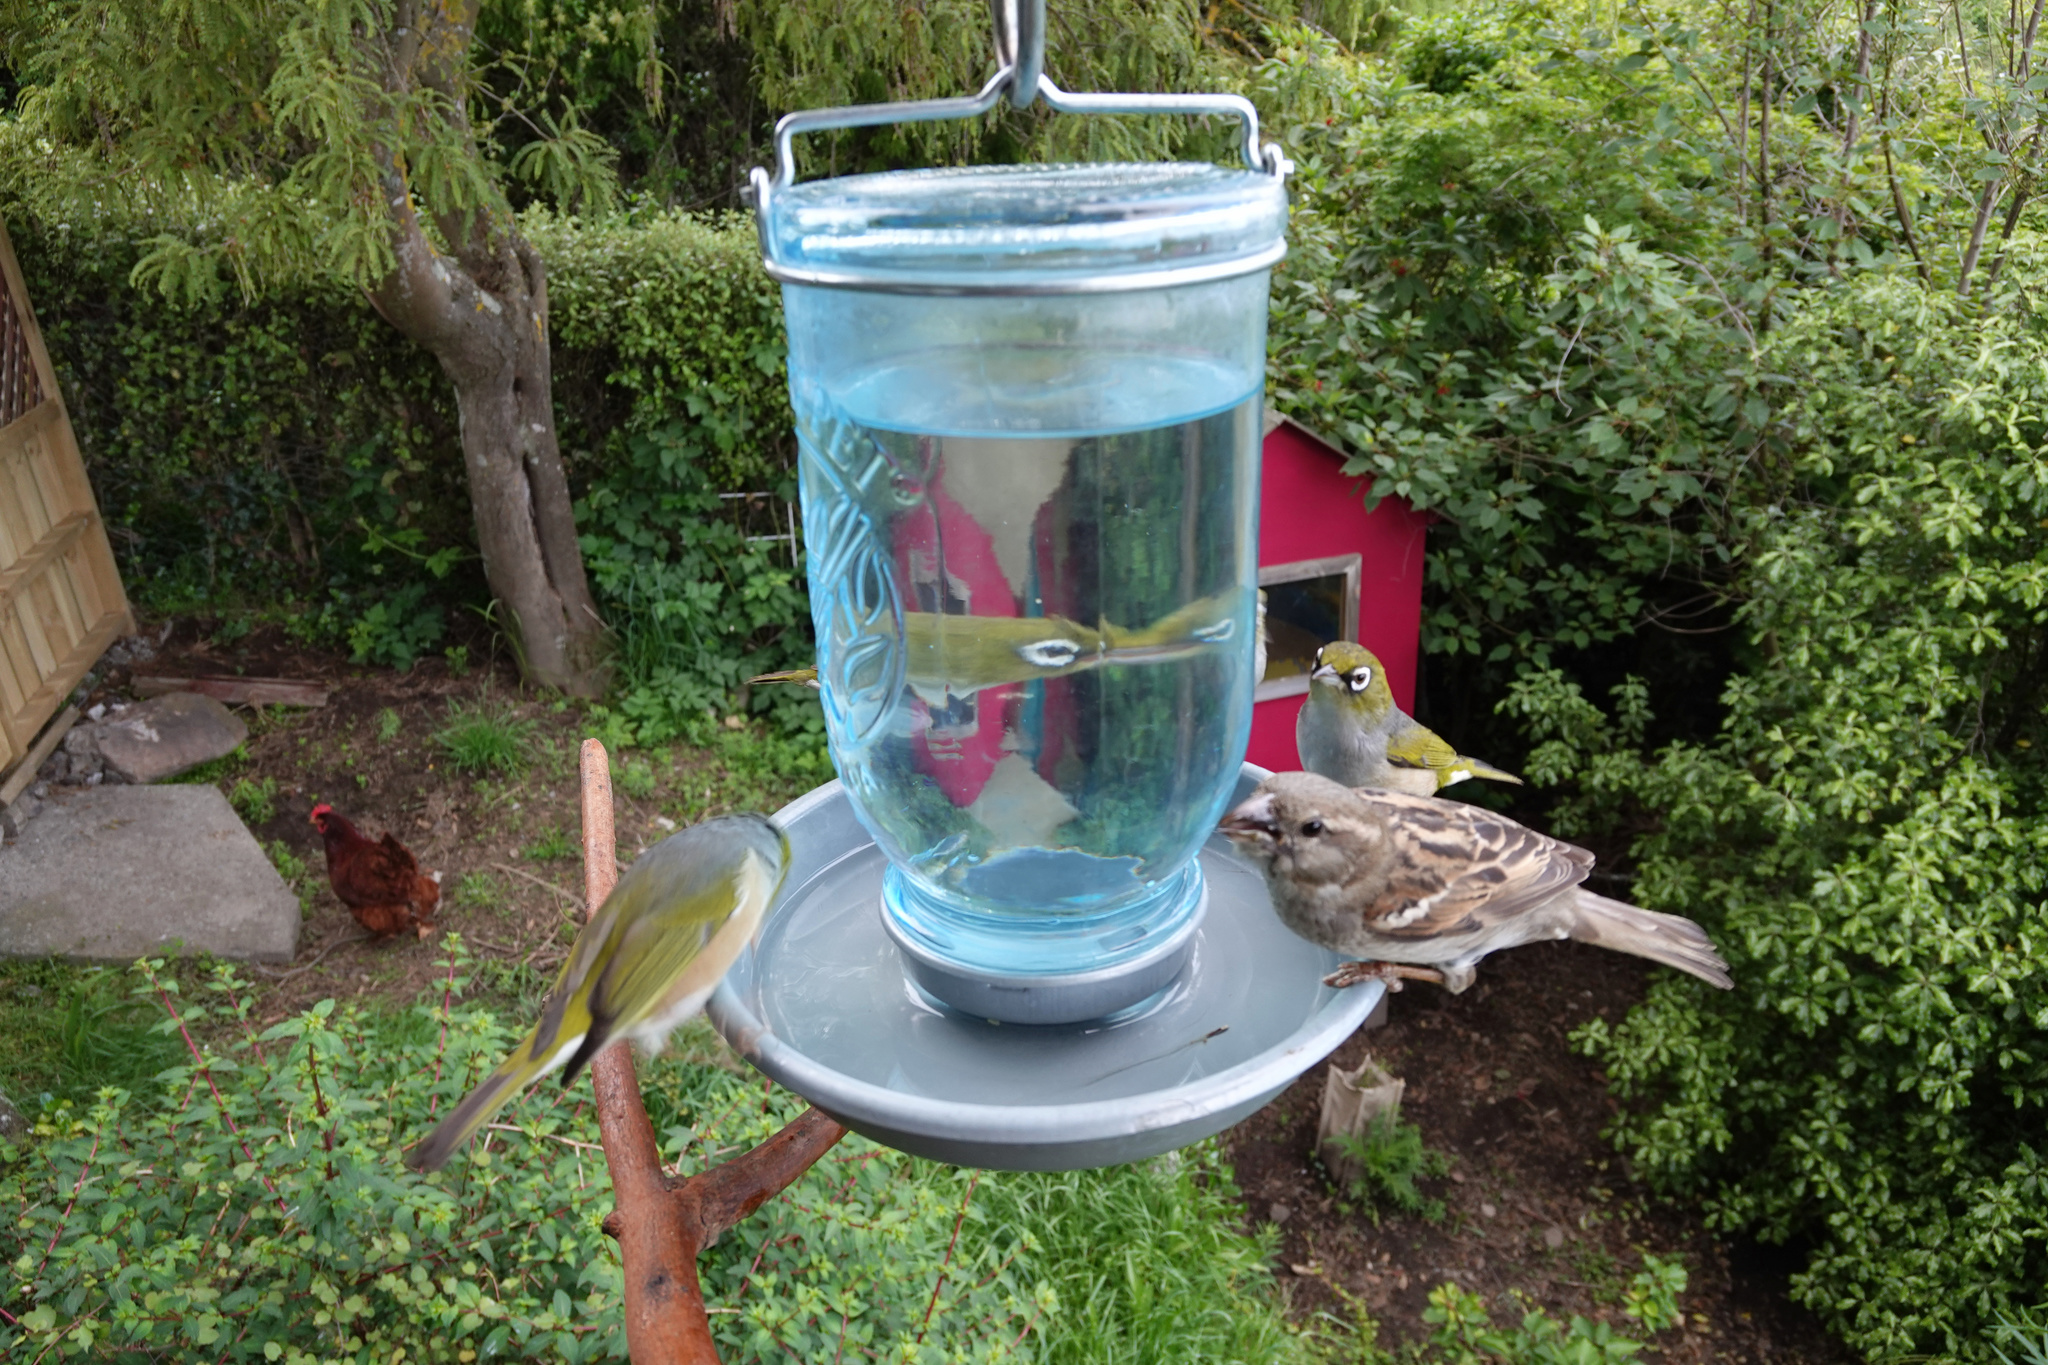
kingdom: Animalia
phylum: Chordata
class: Aves
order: Passeriformes
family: Passeridae
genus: Passer
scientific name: Passer domesticus
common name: House sparrow
